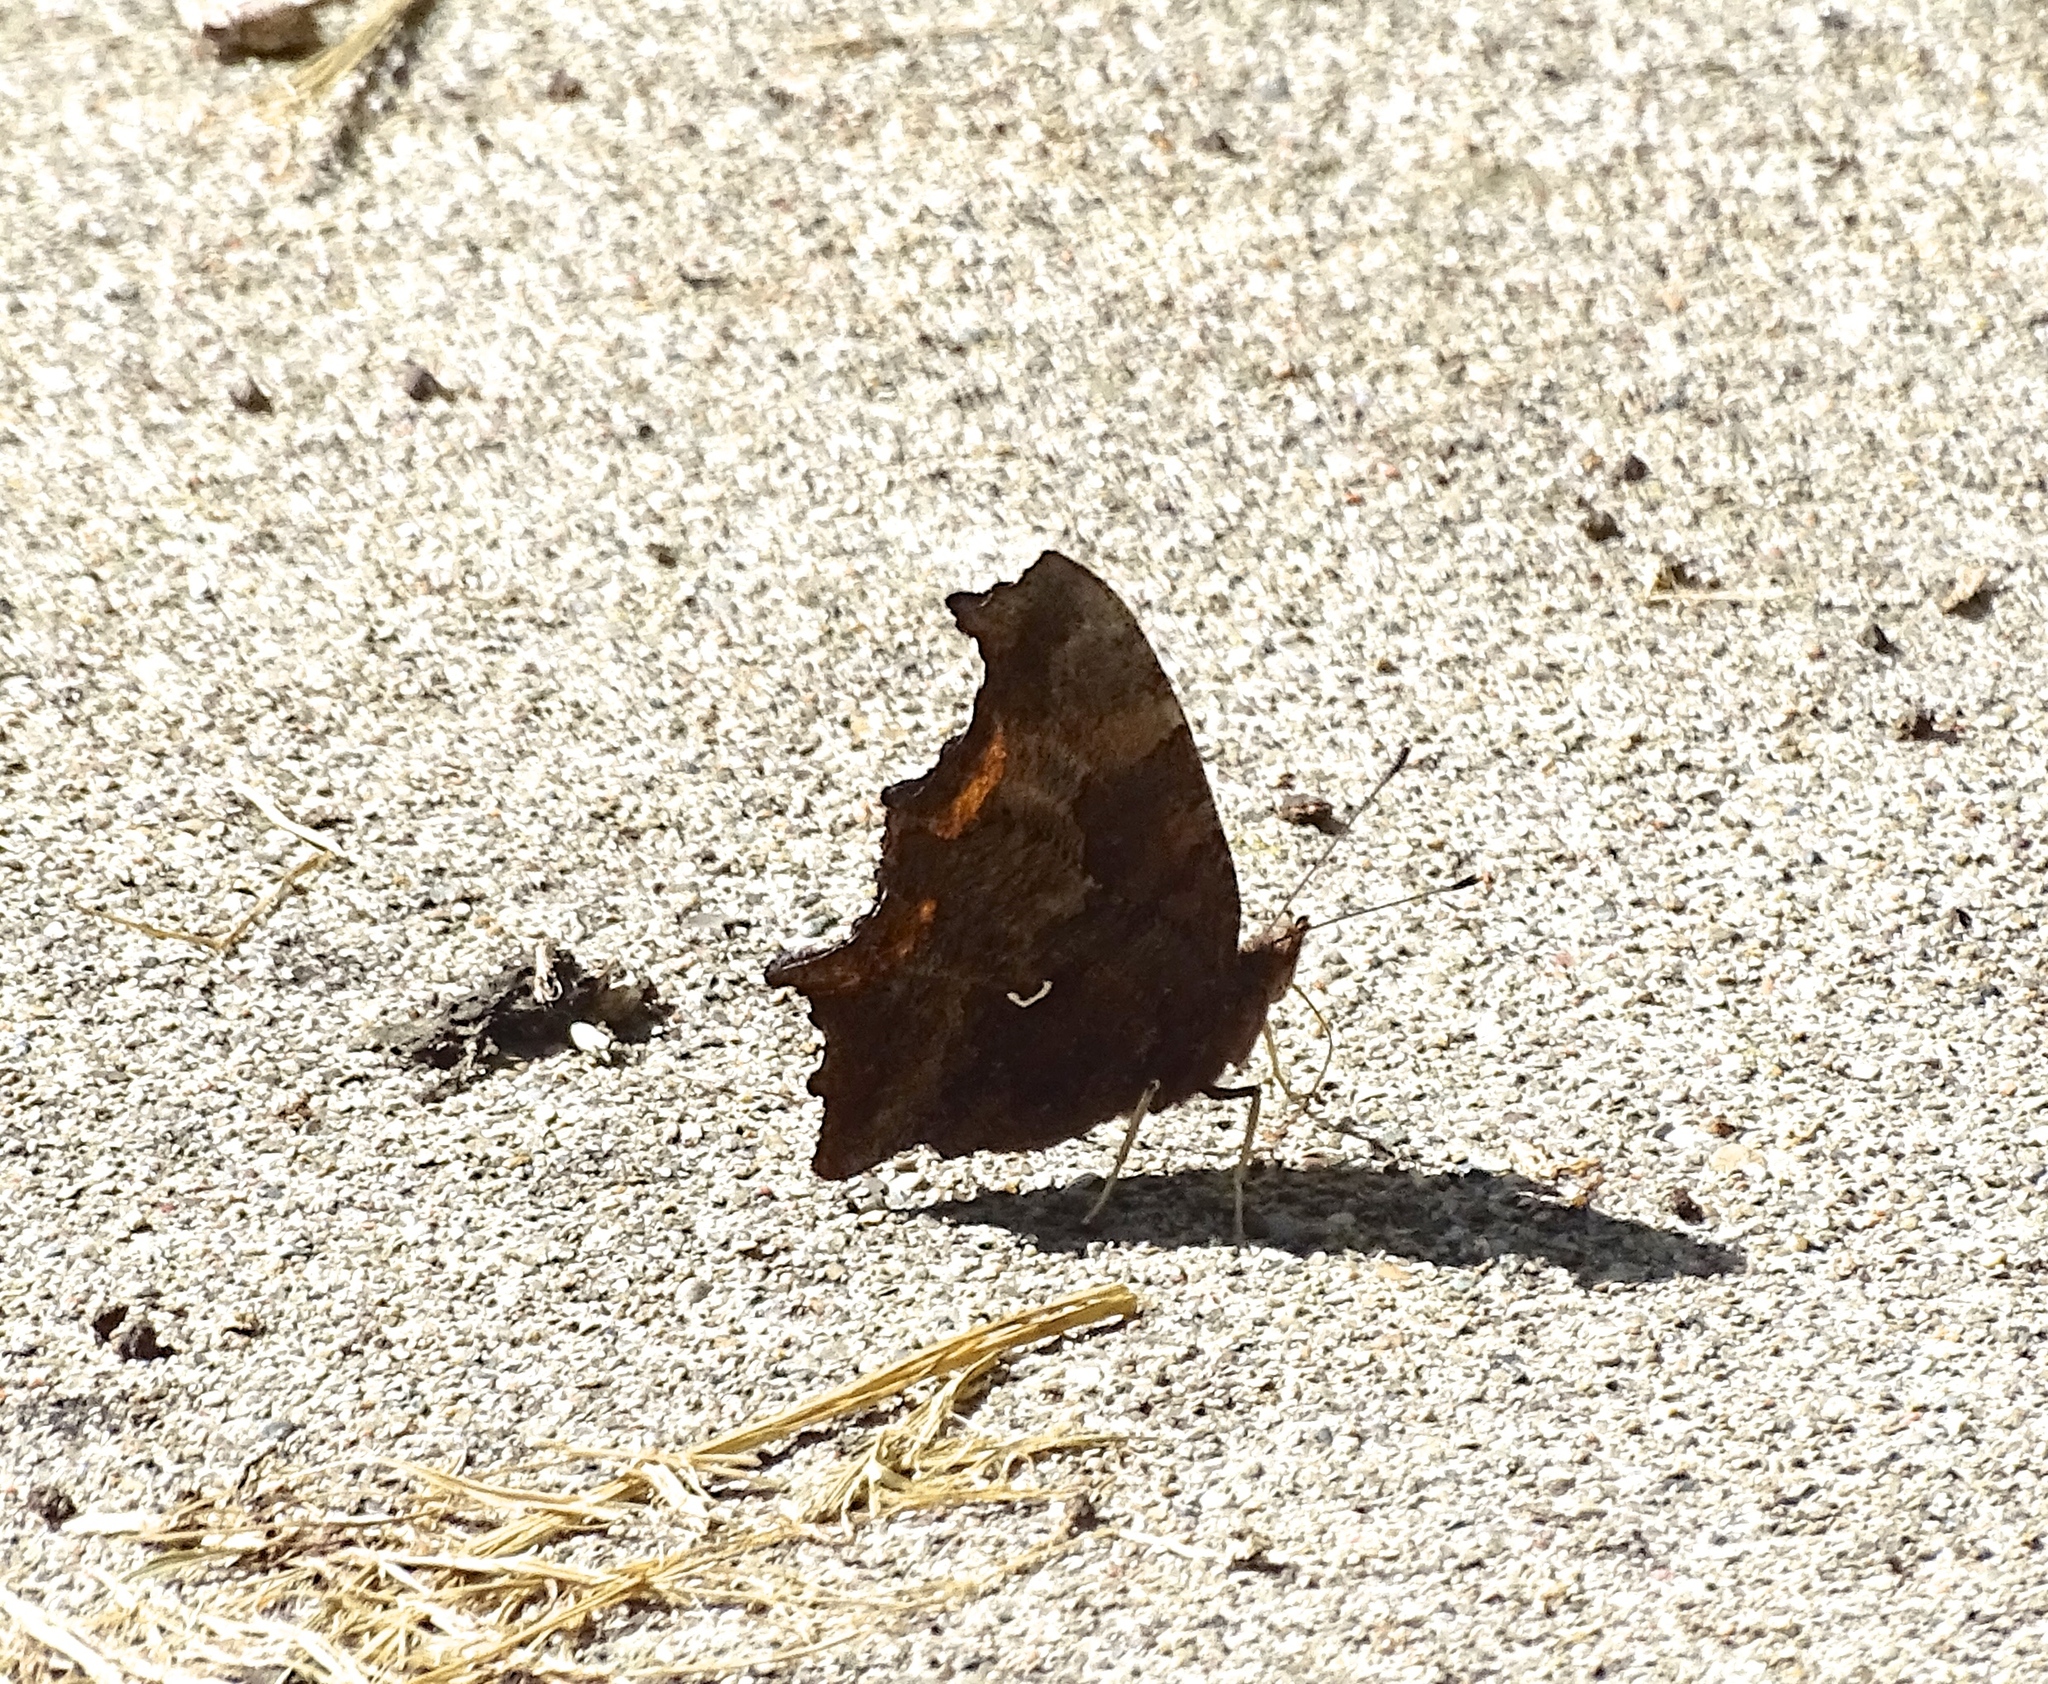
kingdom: Animalia
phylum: Arthropoda
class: Insecta
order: Lepidoptera
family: Nymphalidae
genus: Polygonia
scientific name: Polygonia comma
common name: Eastern comma
